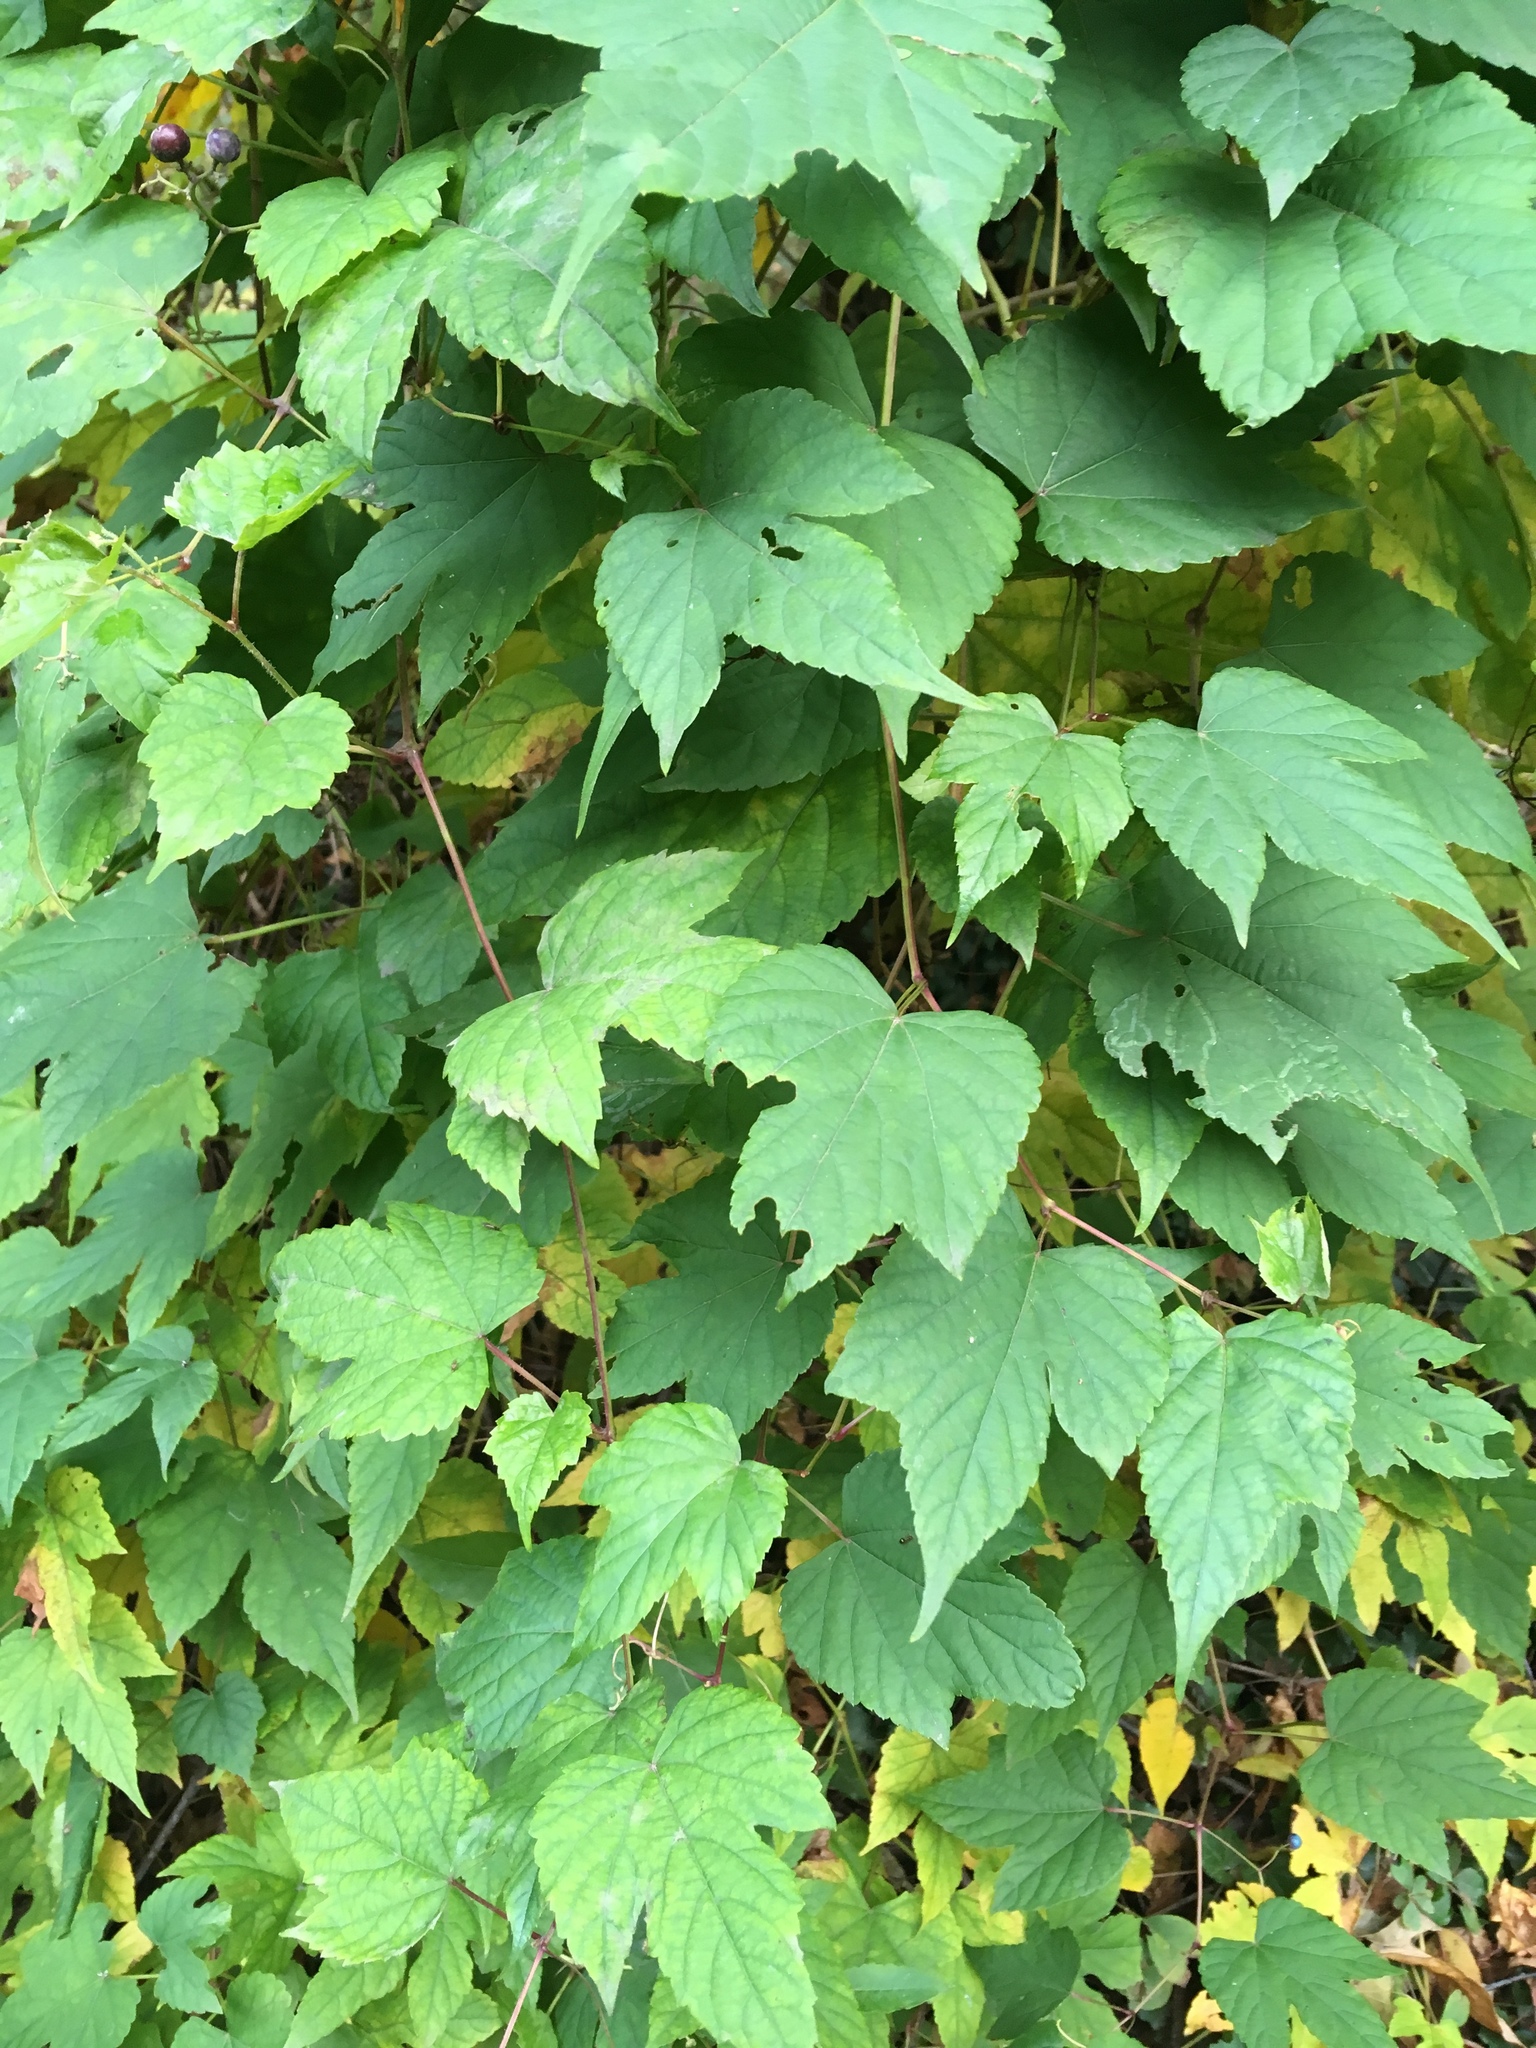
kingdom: Plantae
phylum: Tracheophyta
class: Magnoliopsida
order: Vitales
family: Vitaceae
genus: Ampelopsis
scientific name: Ampelopsis glandulosa
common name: Amur peppervine
